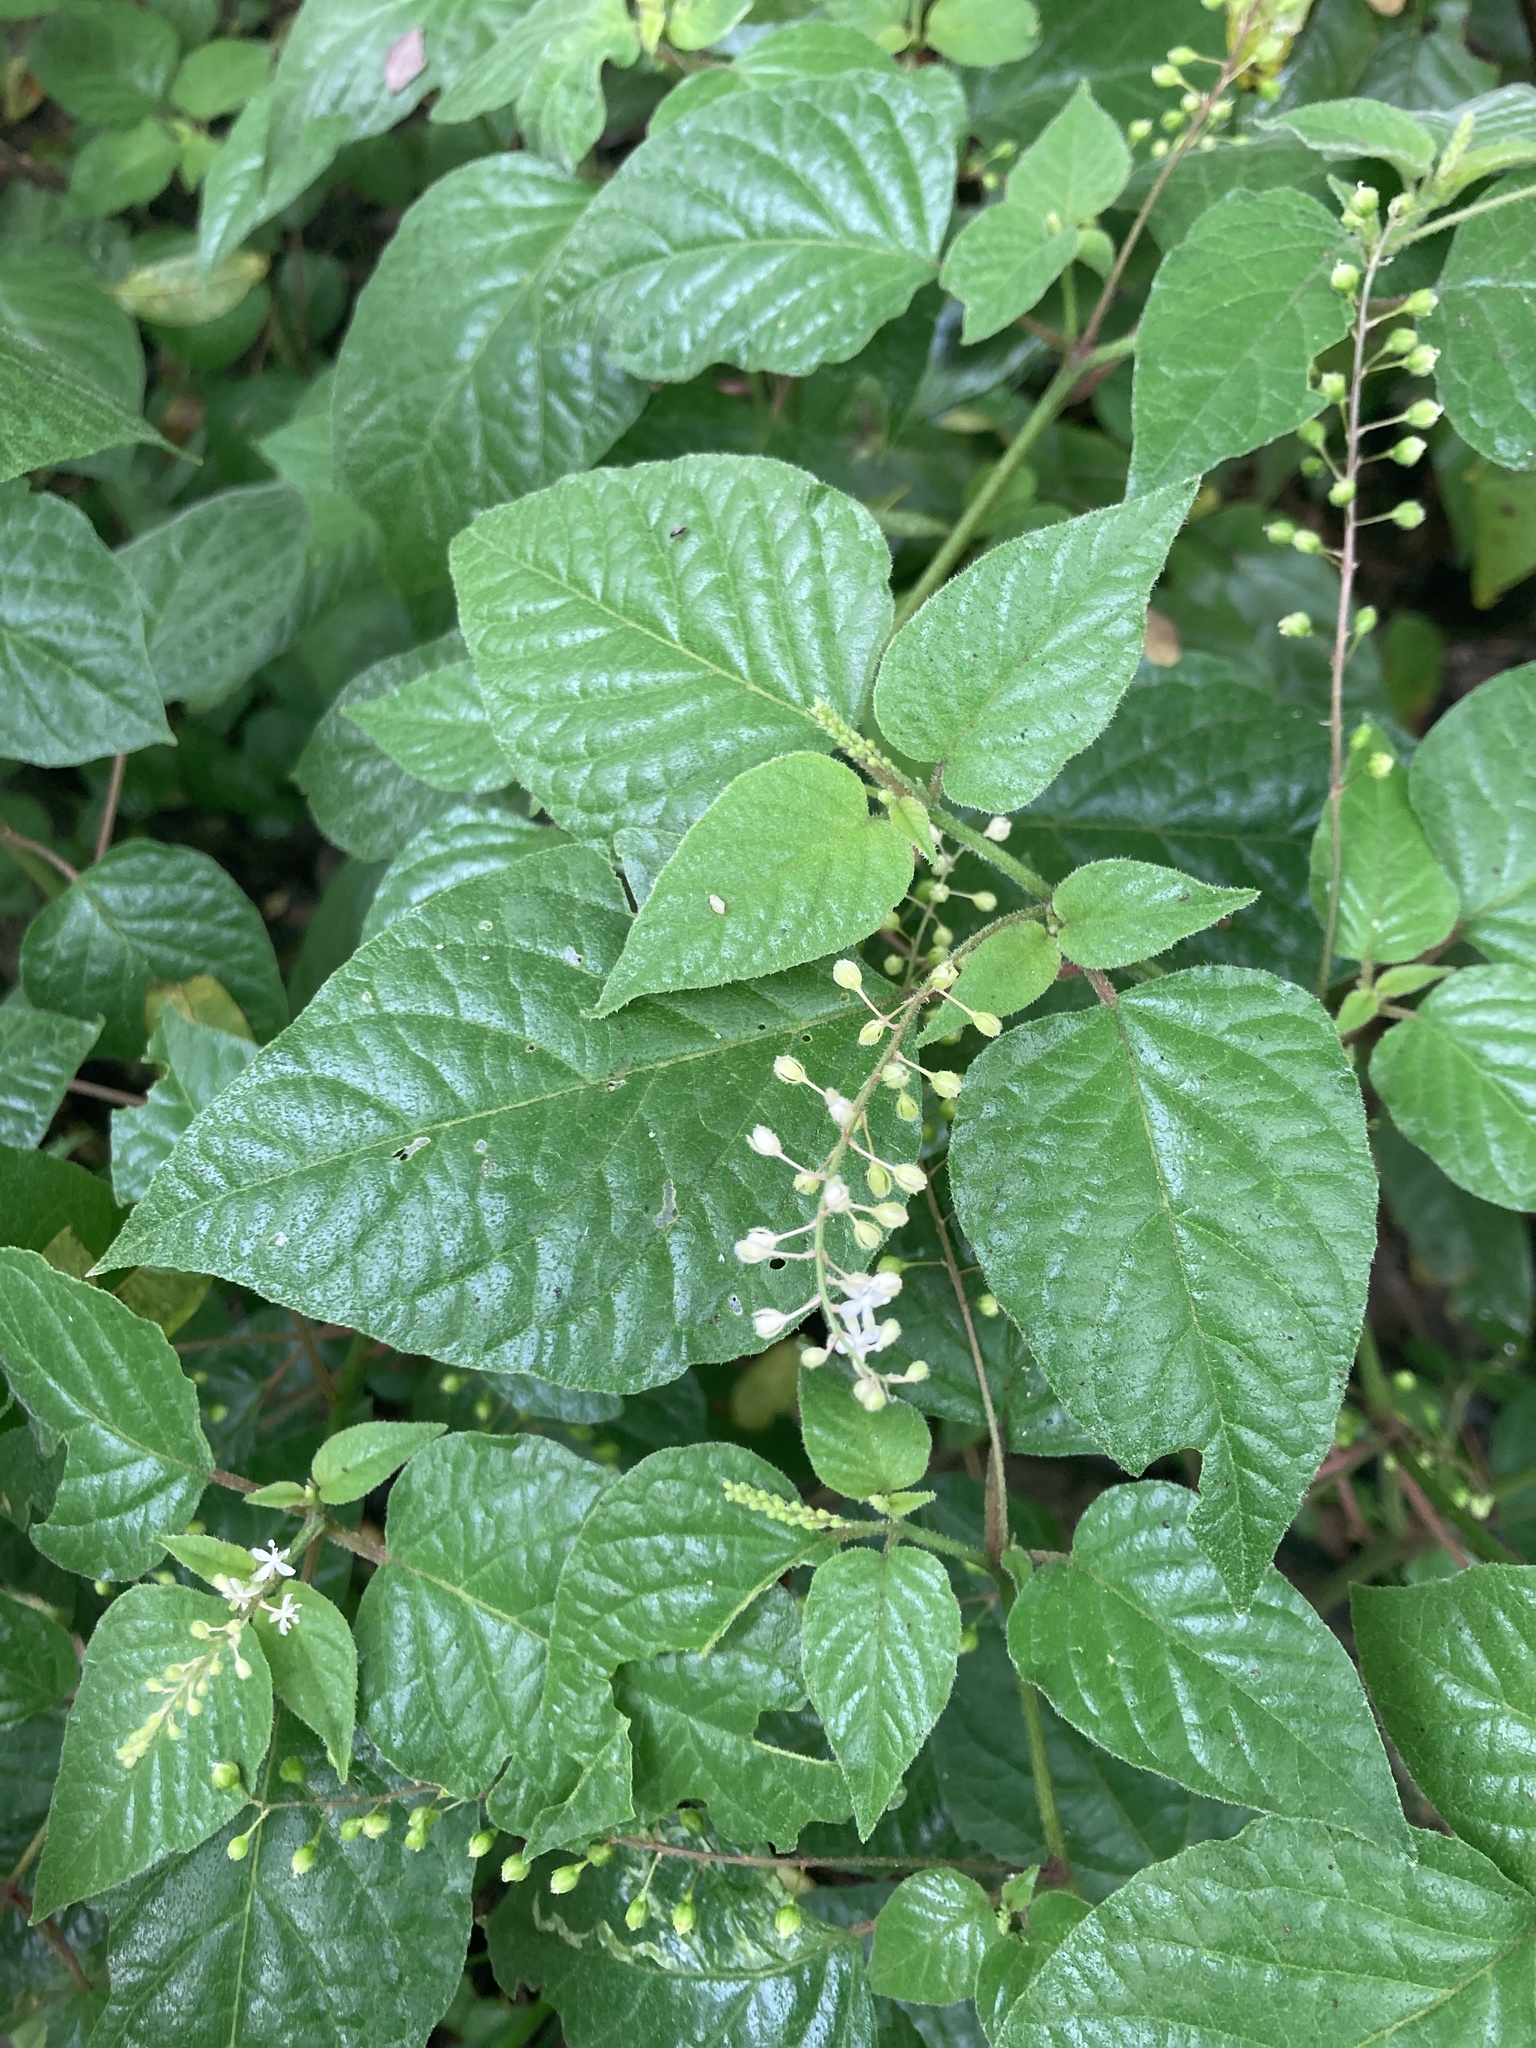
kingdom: Plantae
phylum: Tracheophyta
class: Magnoliopsida
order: Caryophyllales
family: Phytolaccaceae
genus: Rivina
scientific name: Rivina humilis
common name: Rougeplant
